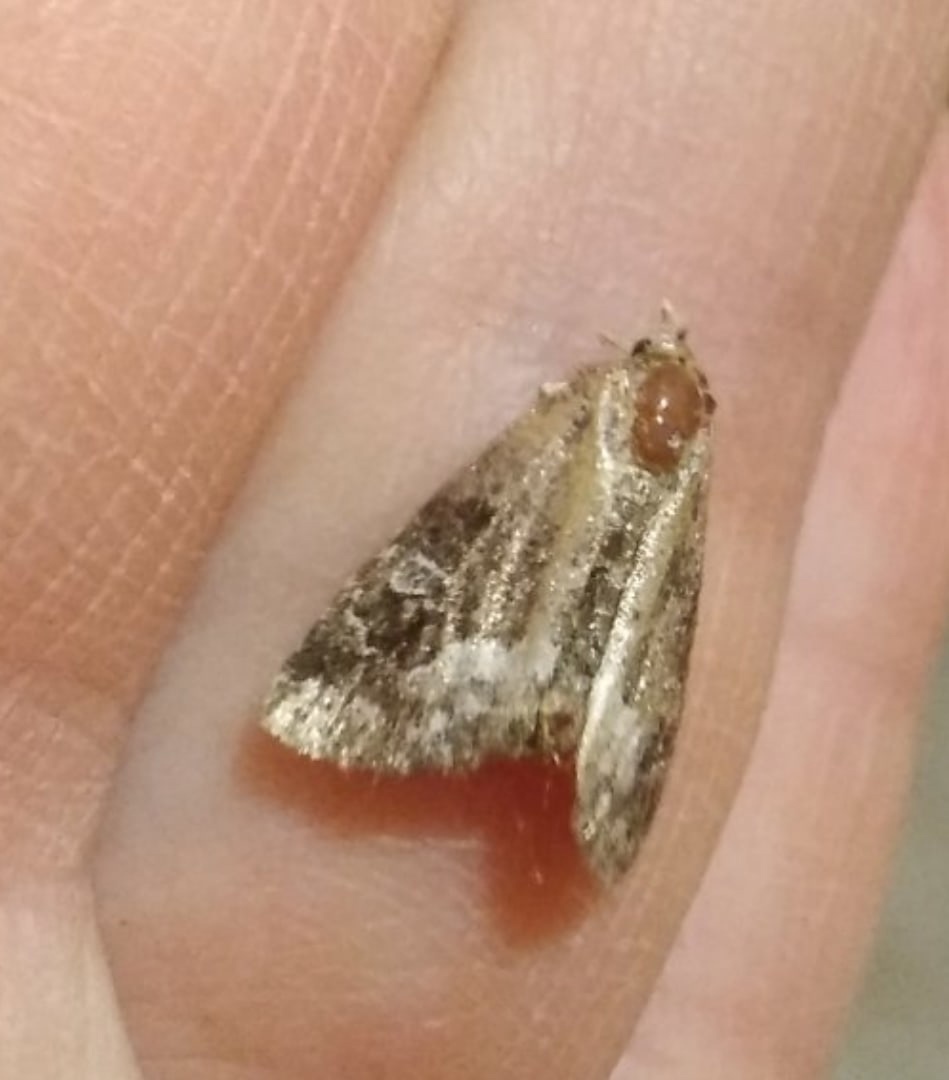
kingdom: Animalia
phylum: Arthropoda
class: Insecta
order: Lepidoptera
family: Noctuidae
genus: Deltote
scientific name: Deltote pygarga
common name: Marbled white spot
